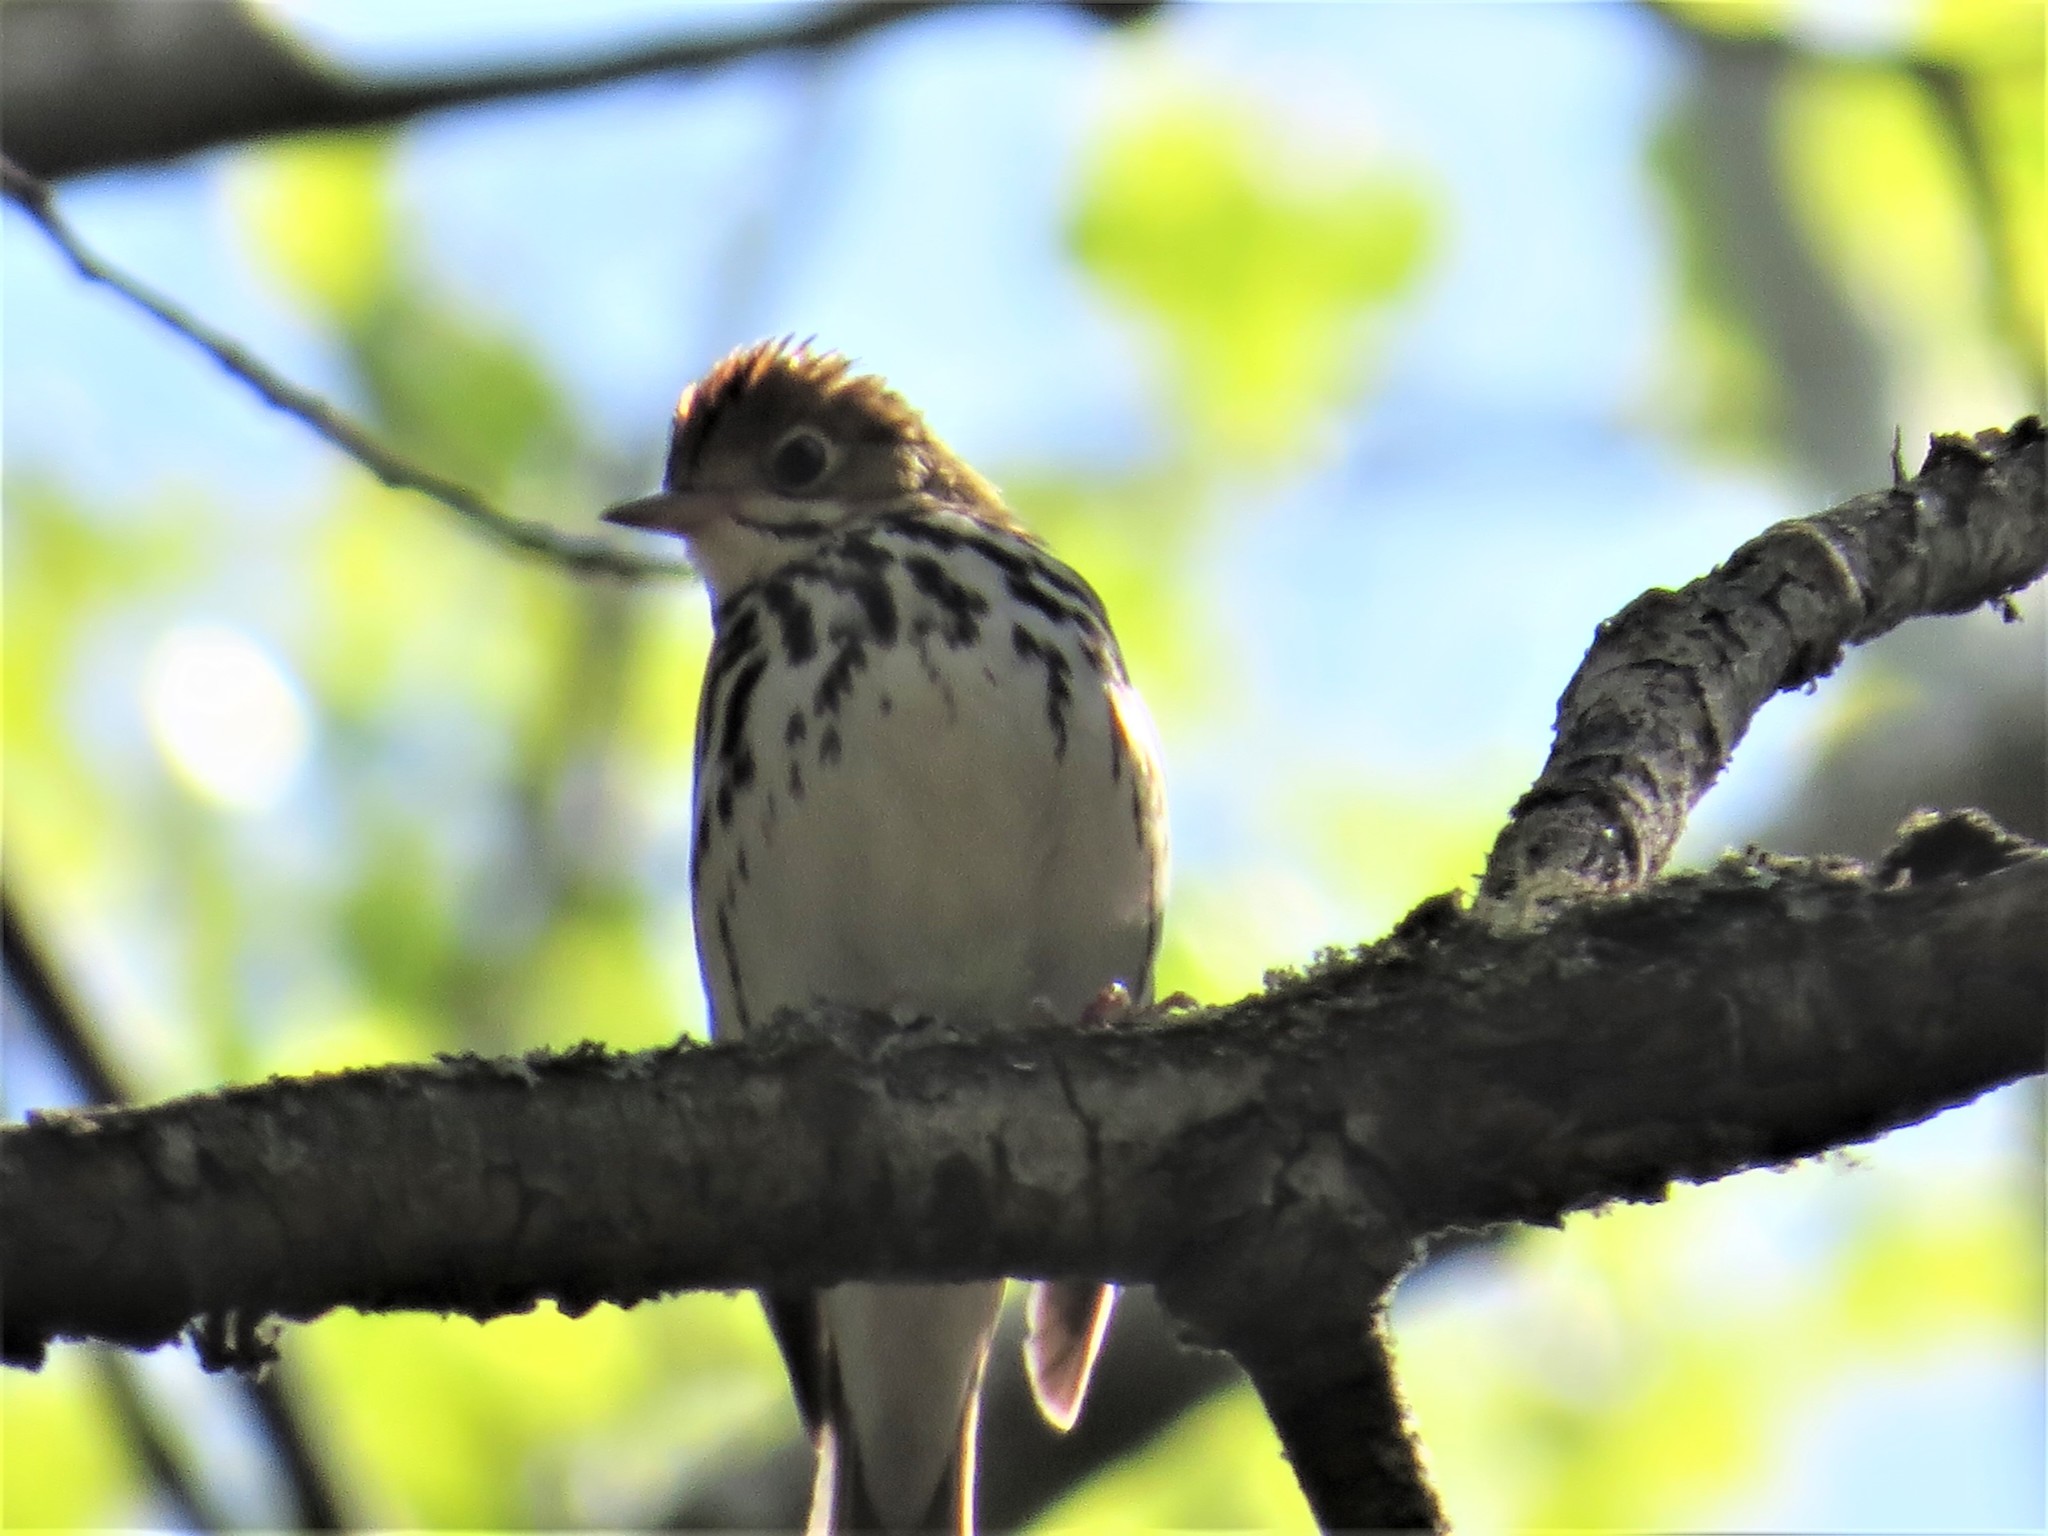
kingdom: Animalia
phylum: Chordata
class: Aves
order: Passeriformes
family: Parulidae
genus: Seiurus
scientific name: Seiurus aurocapilla
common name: Ovenbird
